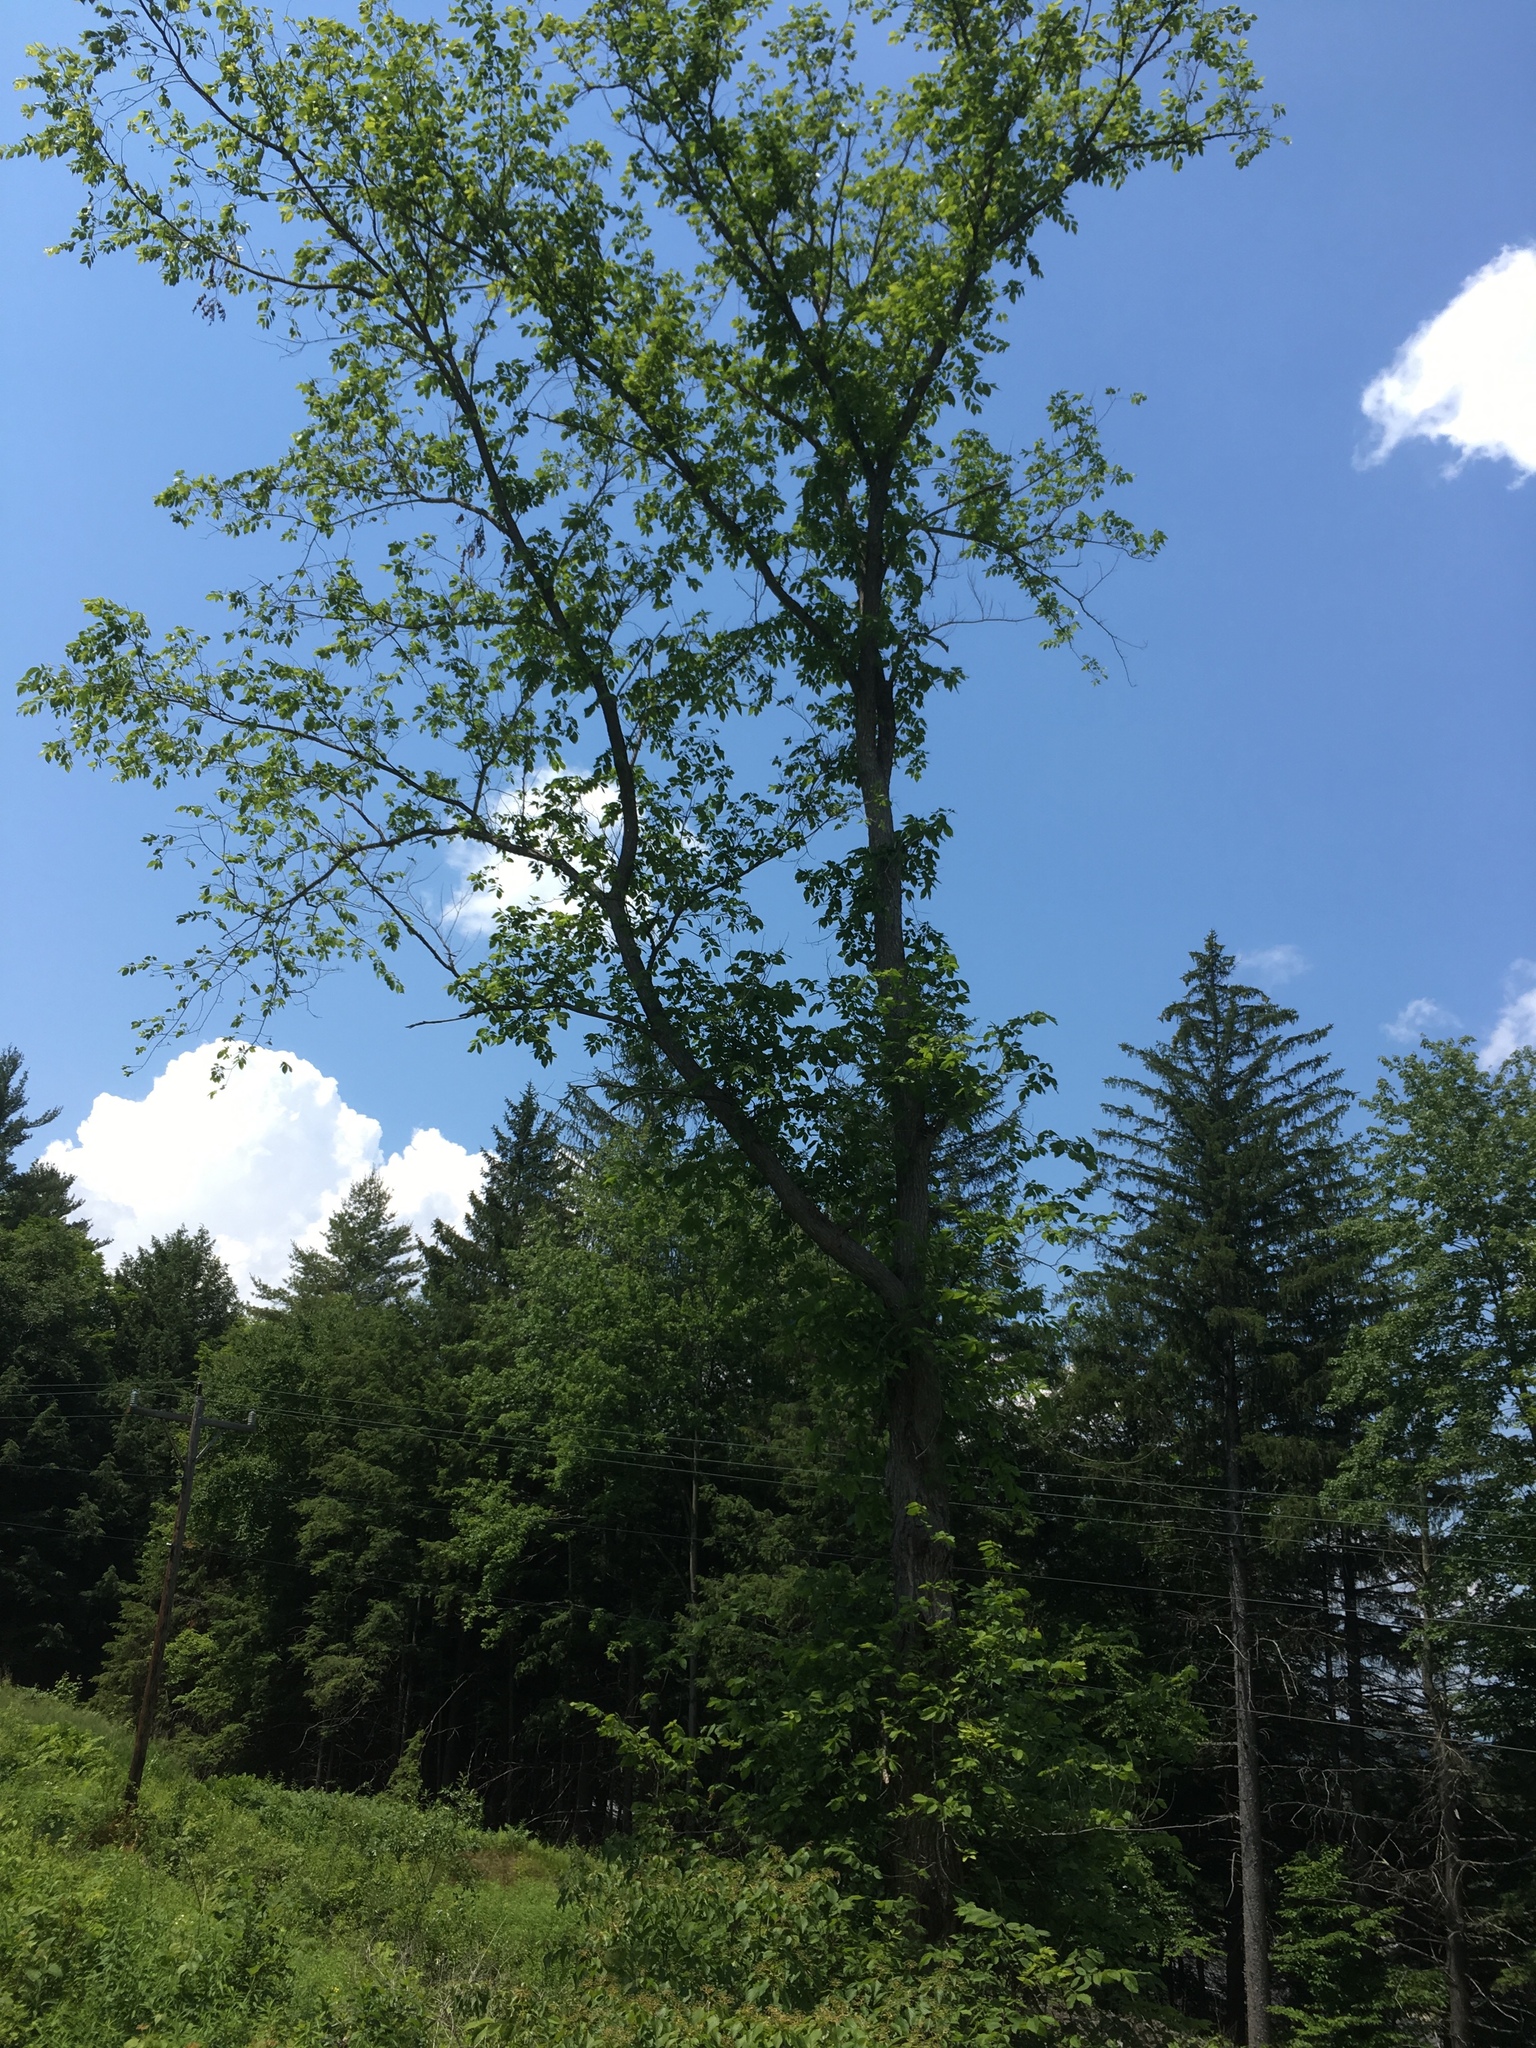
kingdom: Plantae
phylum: Tracheophyta
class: Magnoliopsida
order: Rosales
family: Ulmaceae
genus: Ulmus
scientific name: Ulmus americana
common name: American elm
